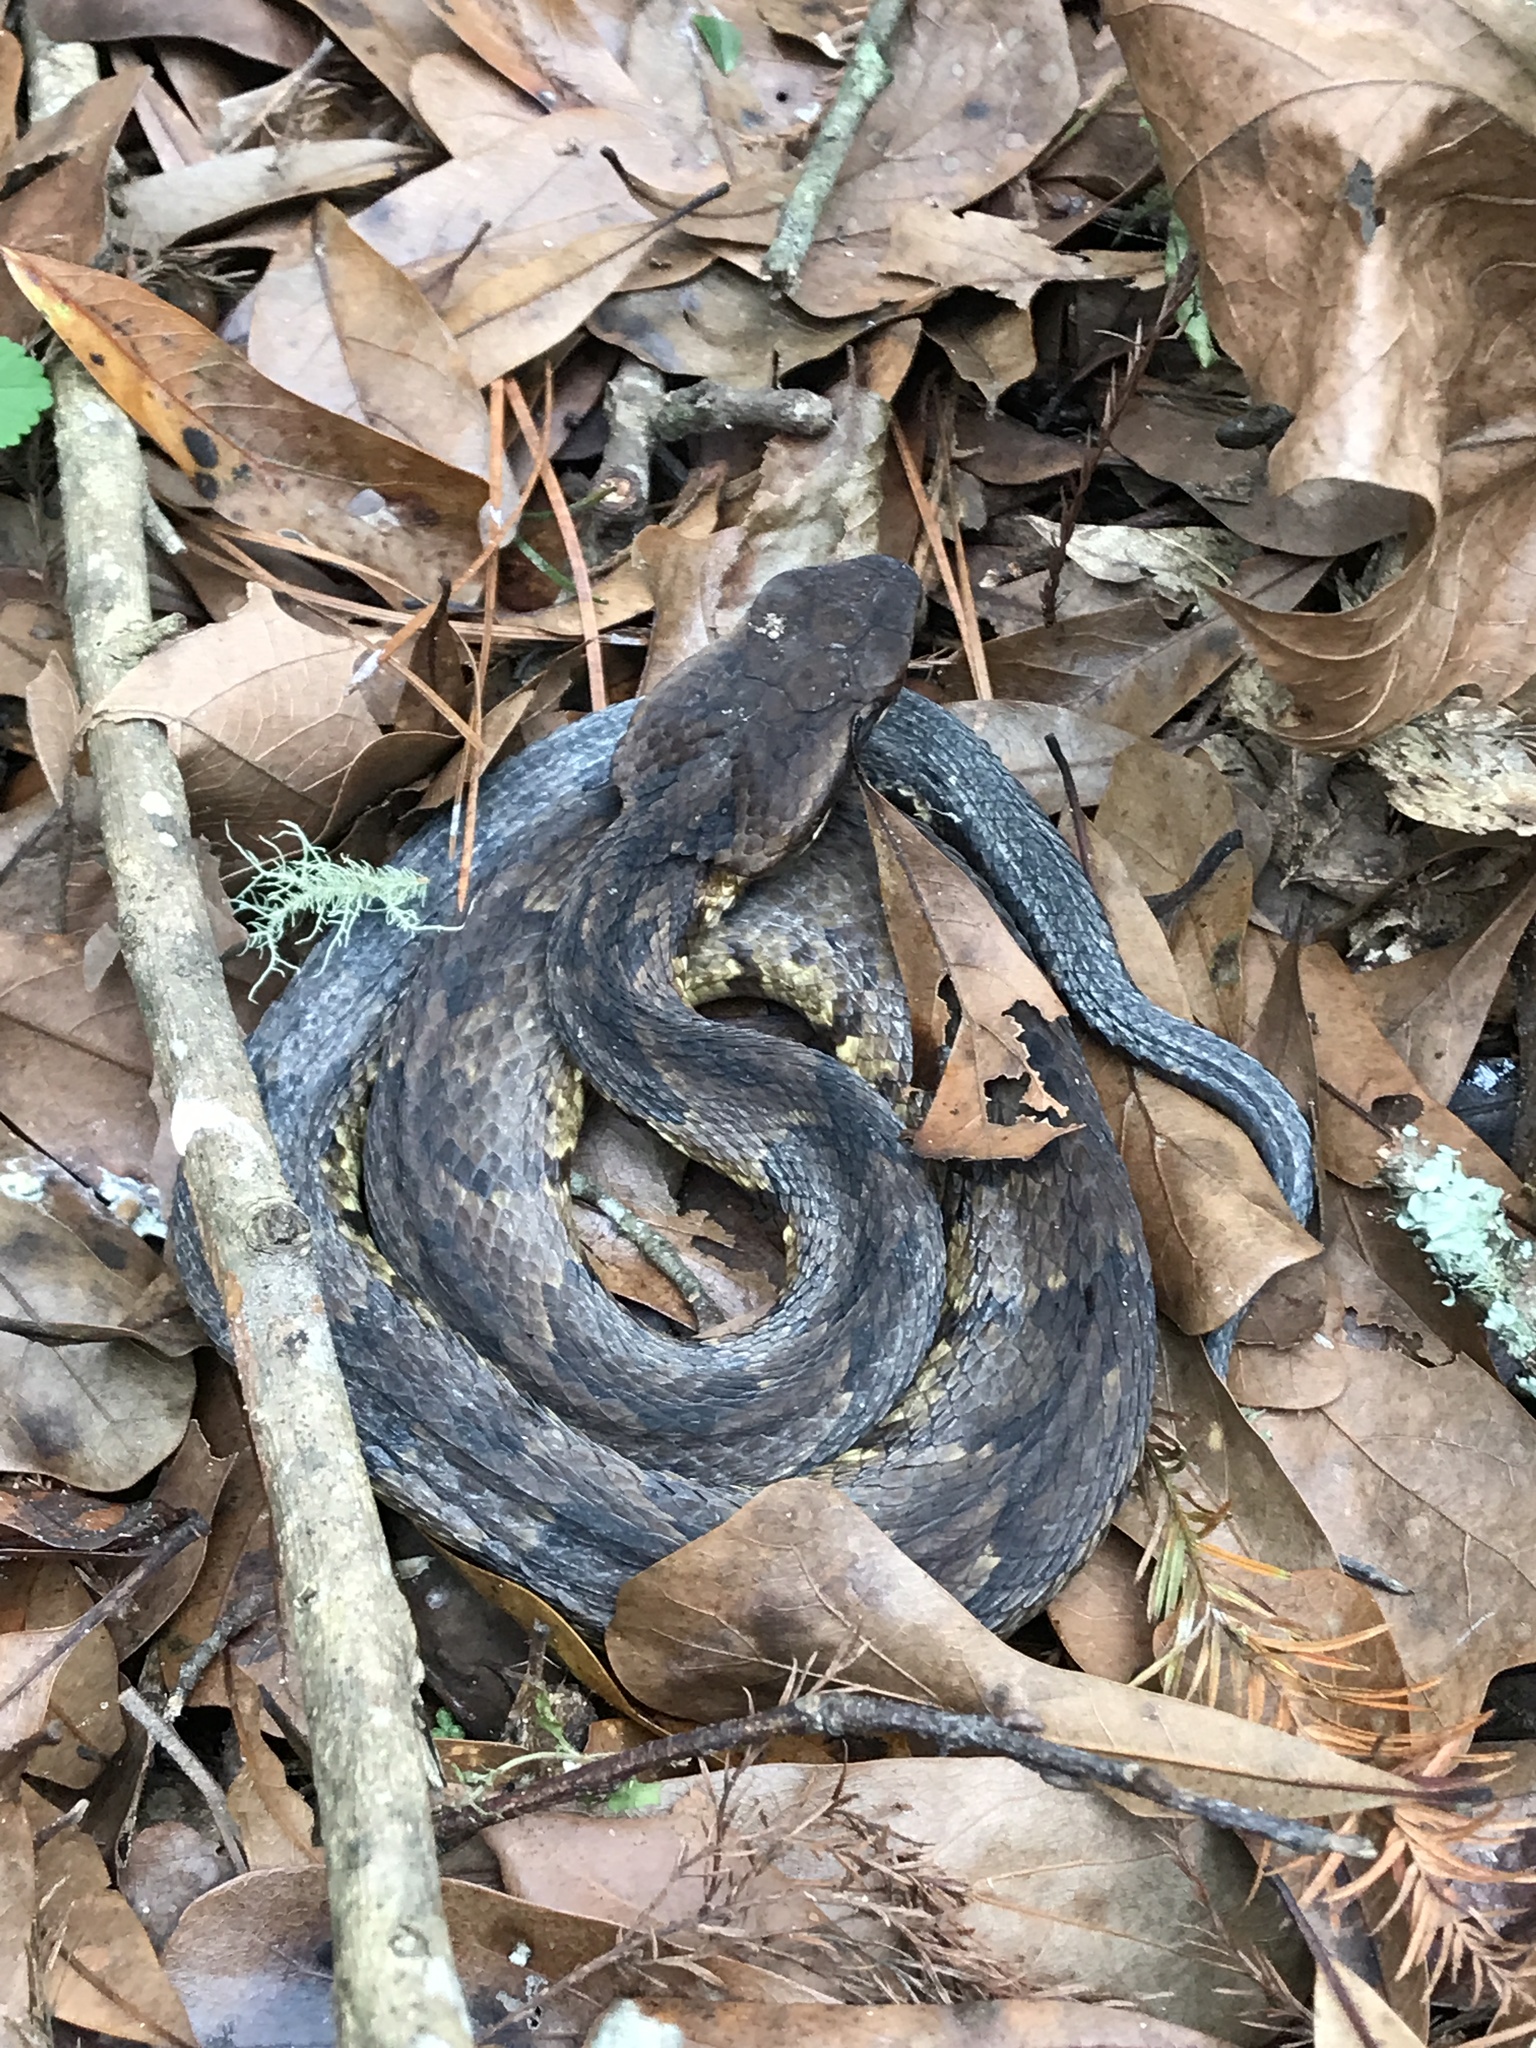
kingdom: Animalia
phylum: Chordata
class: Squamata
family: Viperidae
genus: Agkistrodon
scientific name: Agkistrodon piscivorus
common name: Cottonmouth
